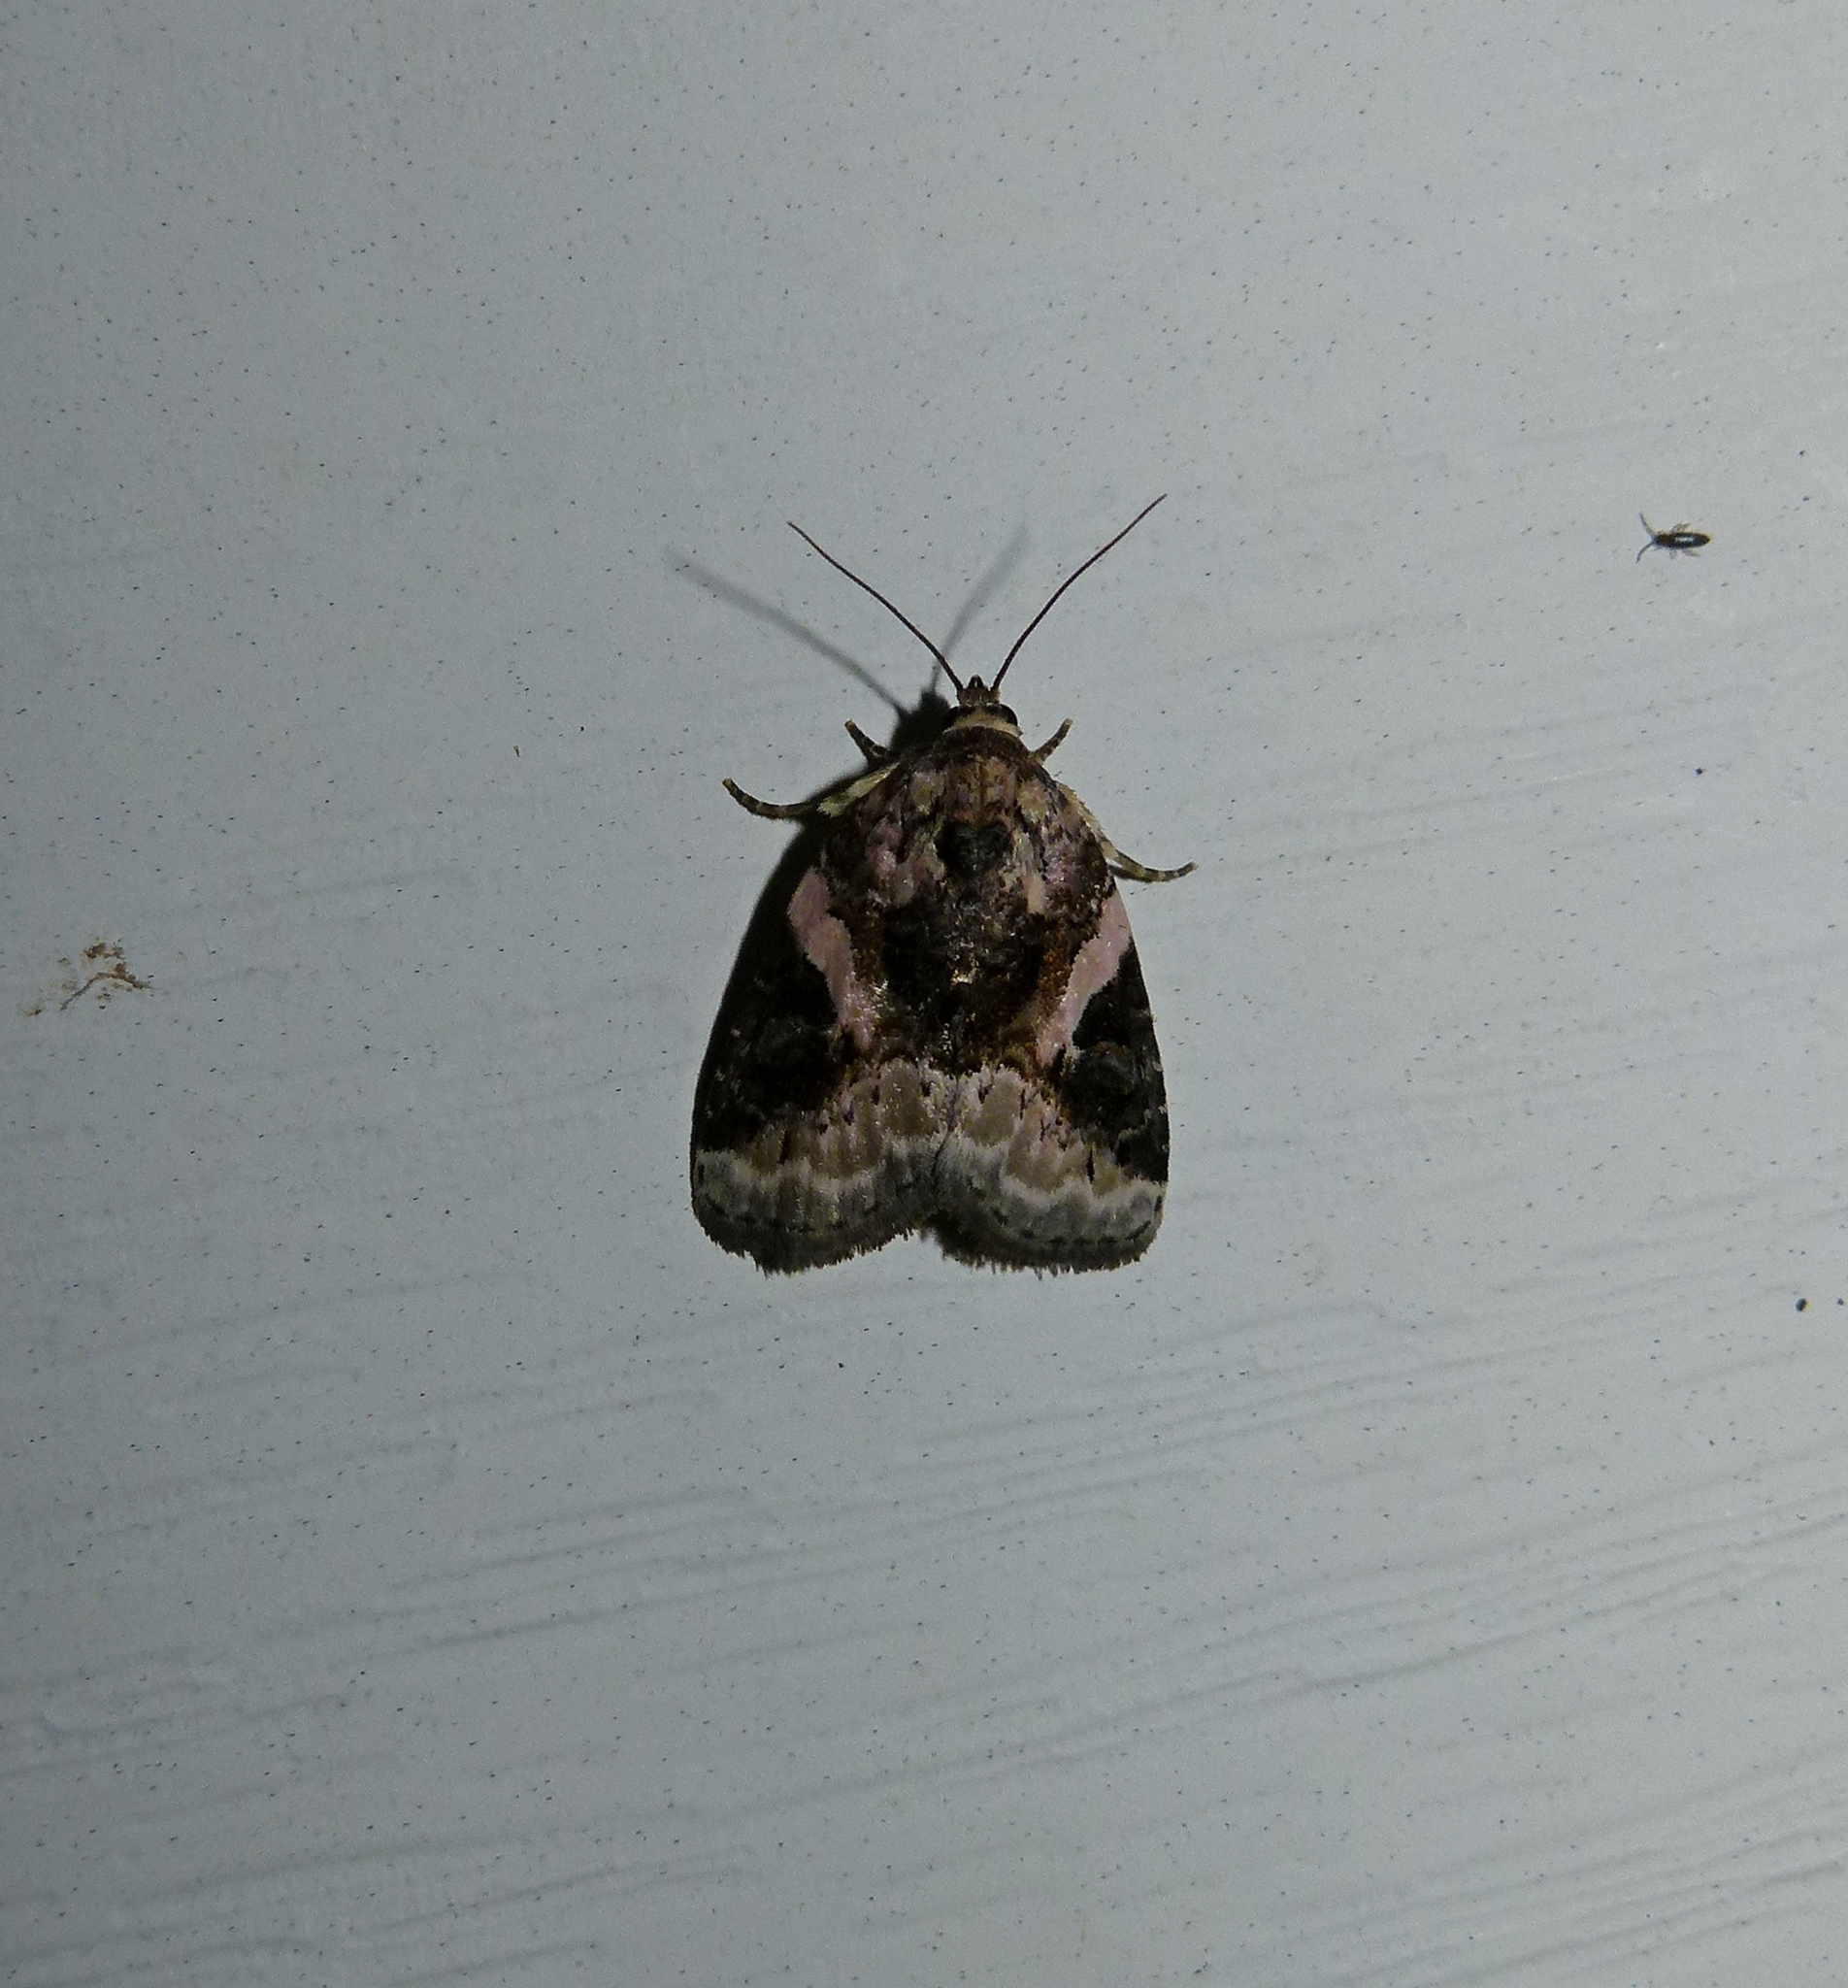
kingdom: Animalia
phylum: Arthropoda
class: Insecta
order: Lepidoptera
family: Noctuidae
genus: Pseudeustrotia
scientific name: Pseudeustrotia carneola
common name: Pink-barred lithacodia moth
